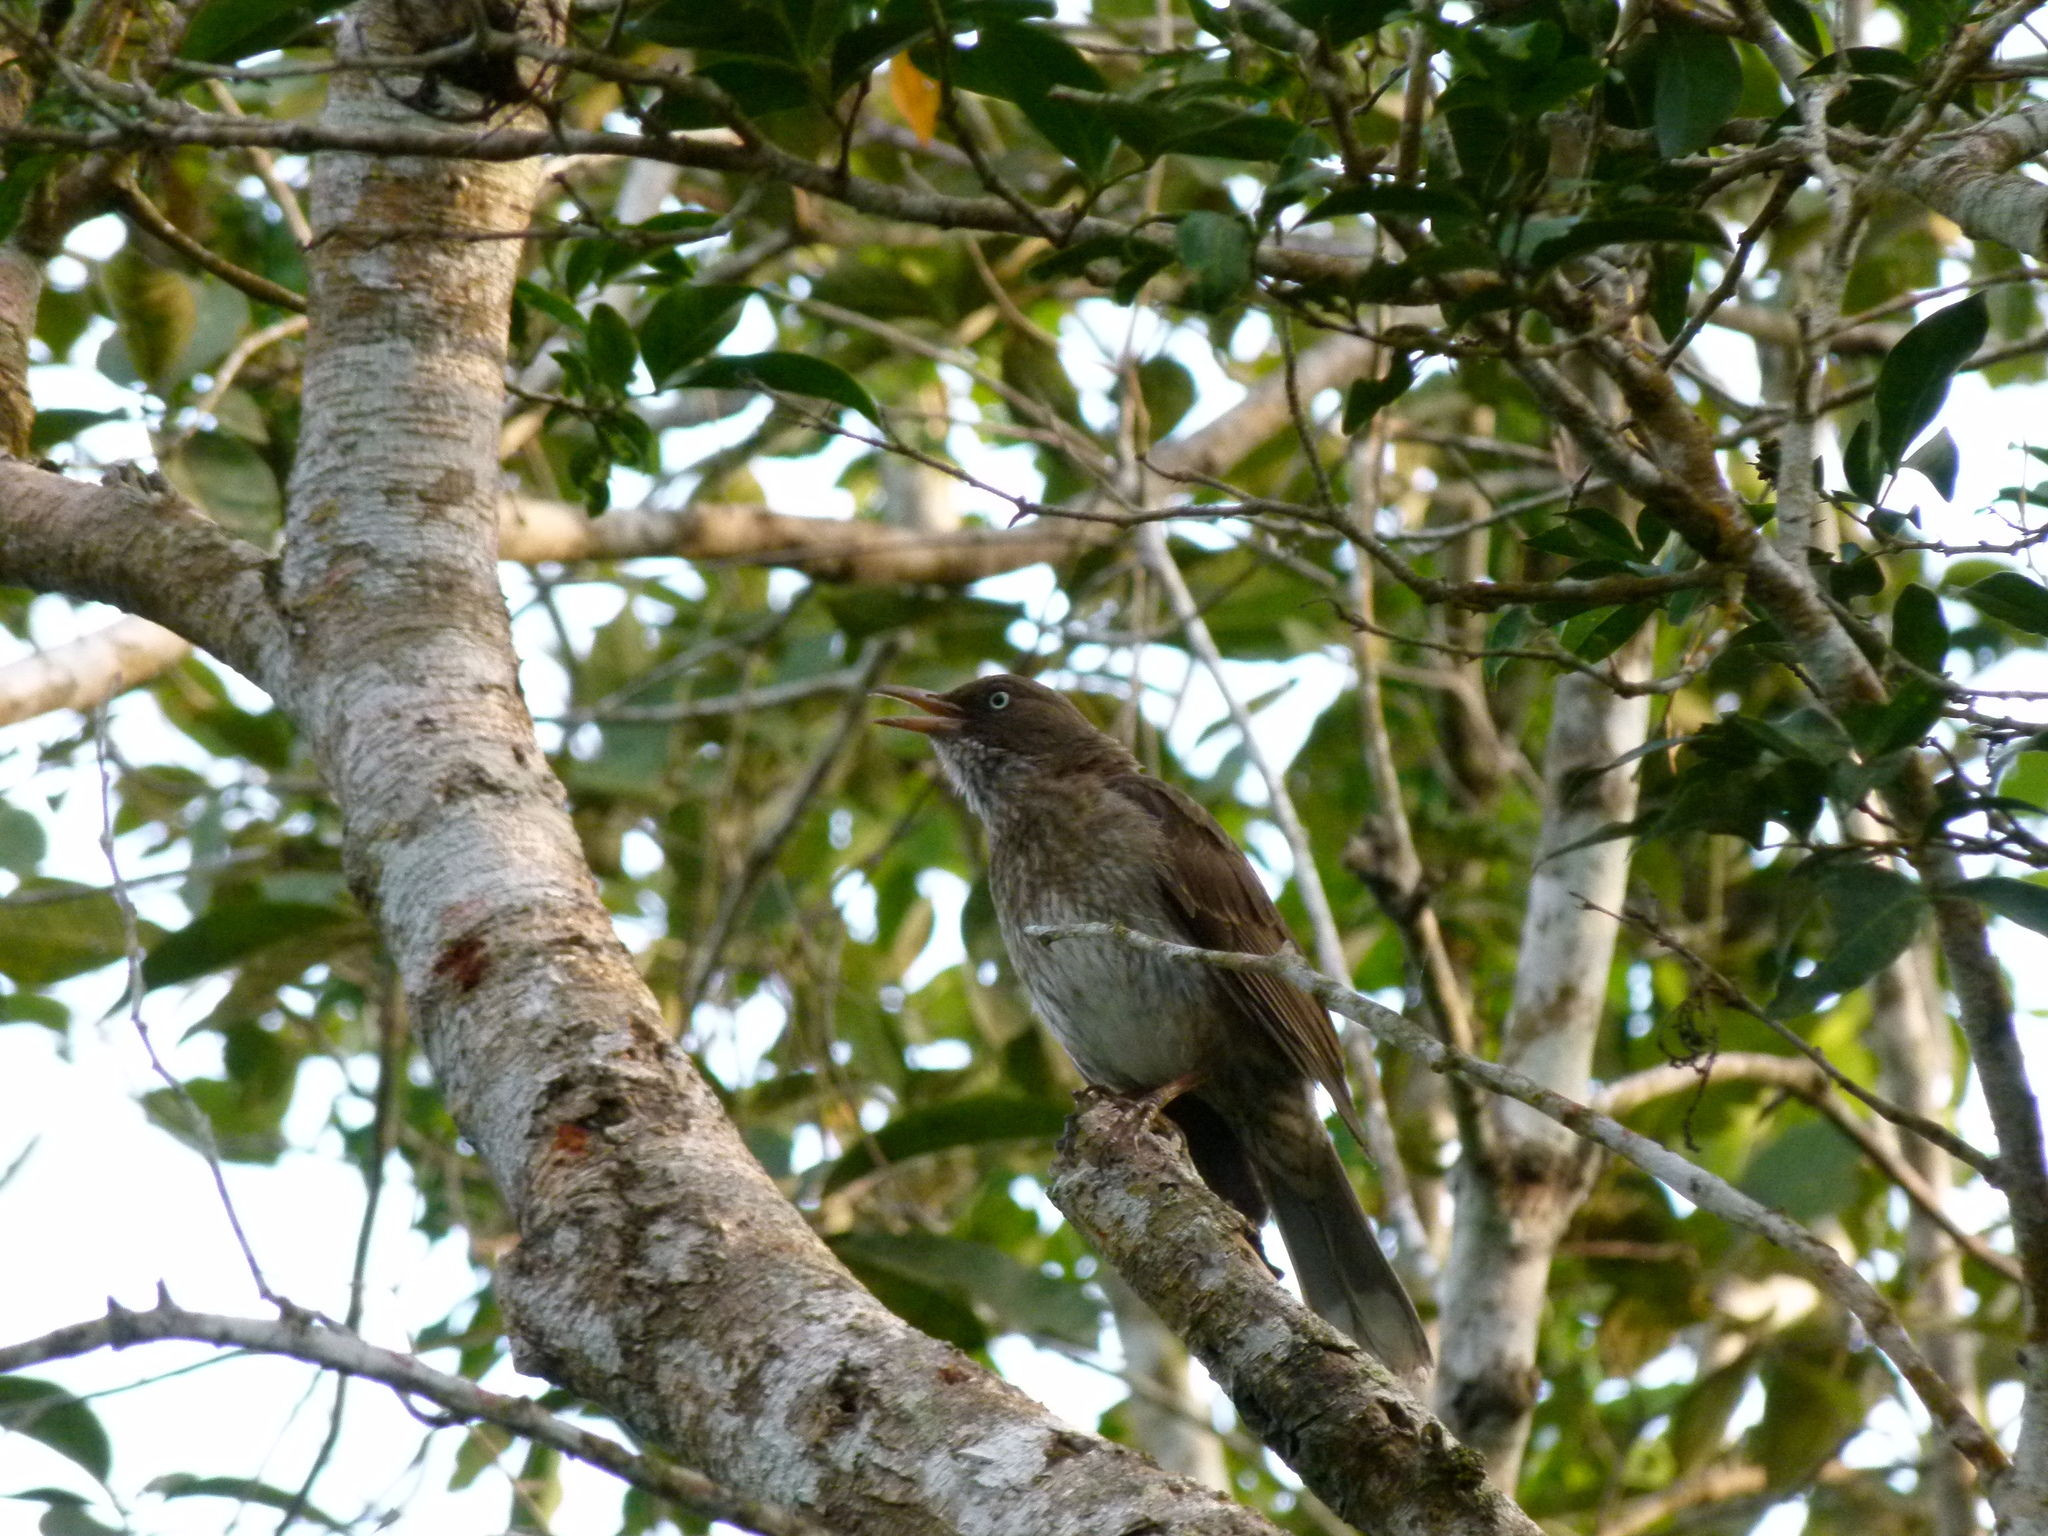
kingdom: Animalia
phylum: Chordata
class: Aves
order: Passeriformes
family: Mimidae
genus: Margarops
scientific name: Margarops fuscatus
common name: Pearly-eyed thrasher
